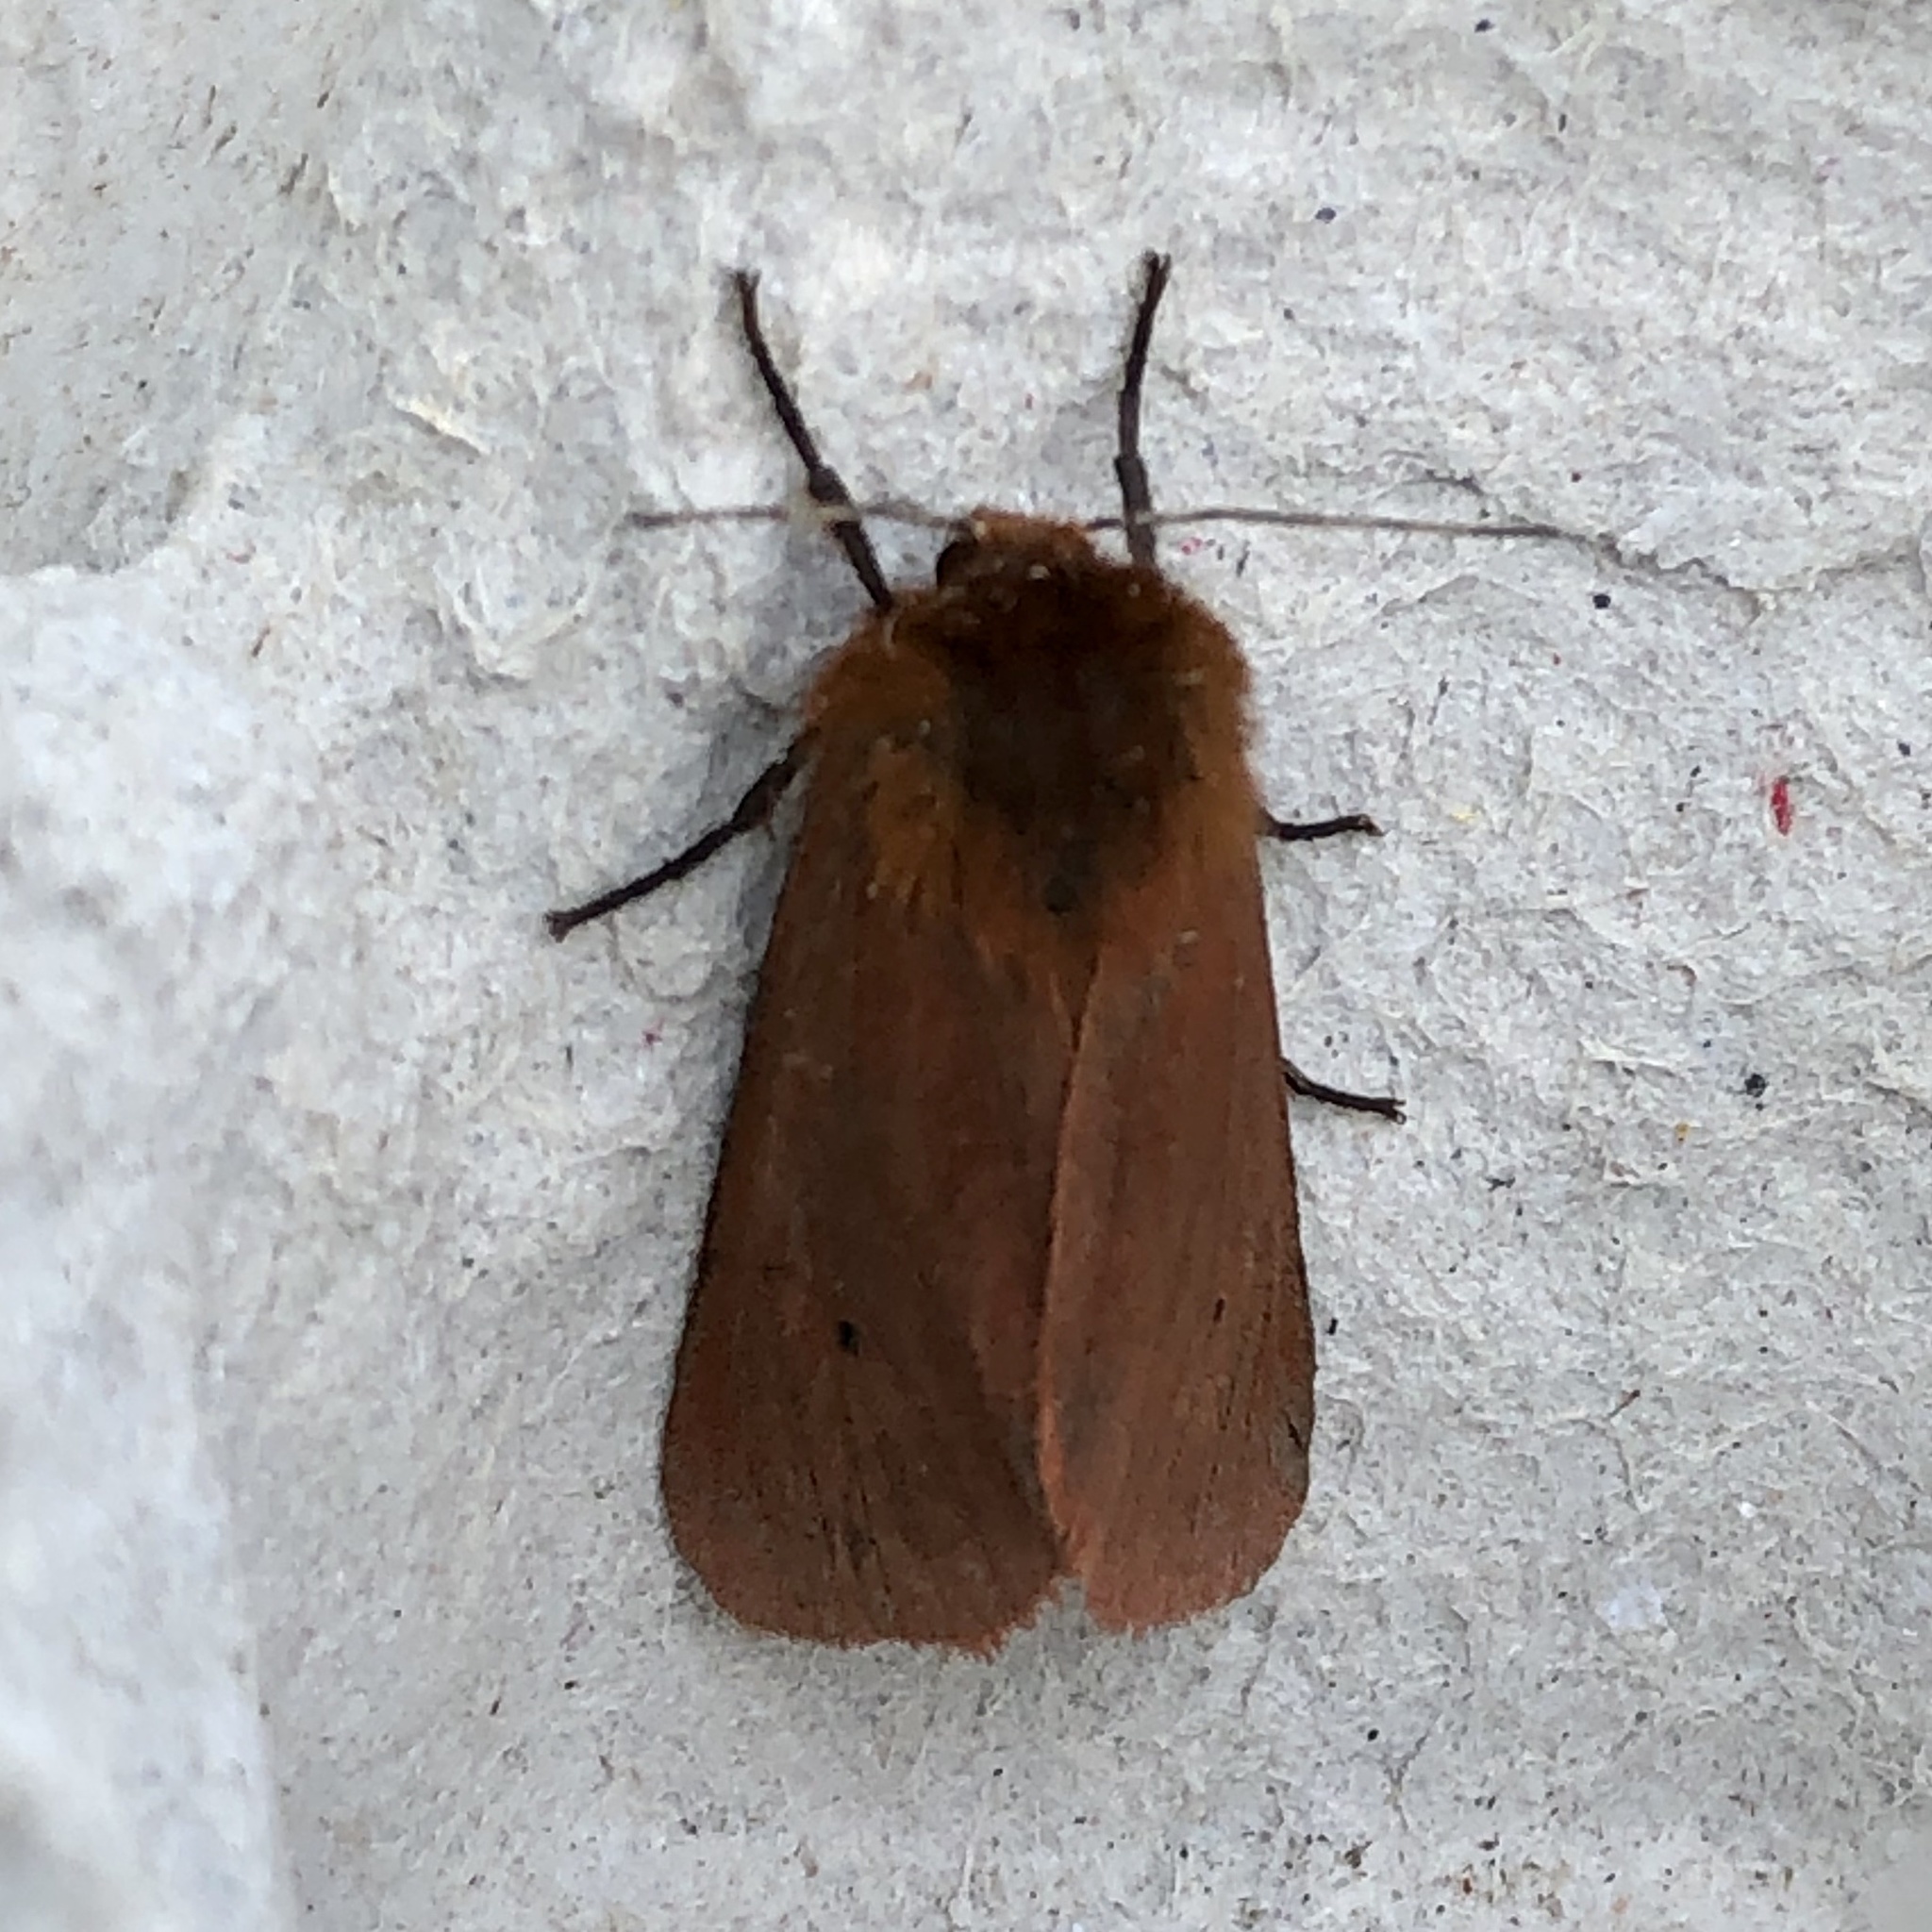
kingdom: Animalia
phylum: Arthropoda
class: Insecta
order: Lepidoptera
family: Erebidae
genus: Phragmatobia
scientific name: Phragmatobia fuliginosa
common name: Ruby tiger
